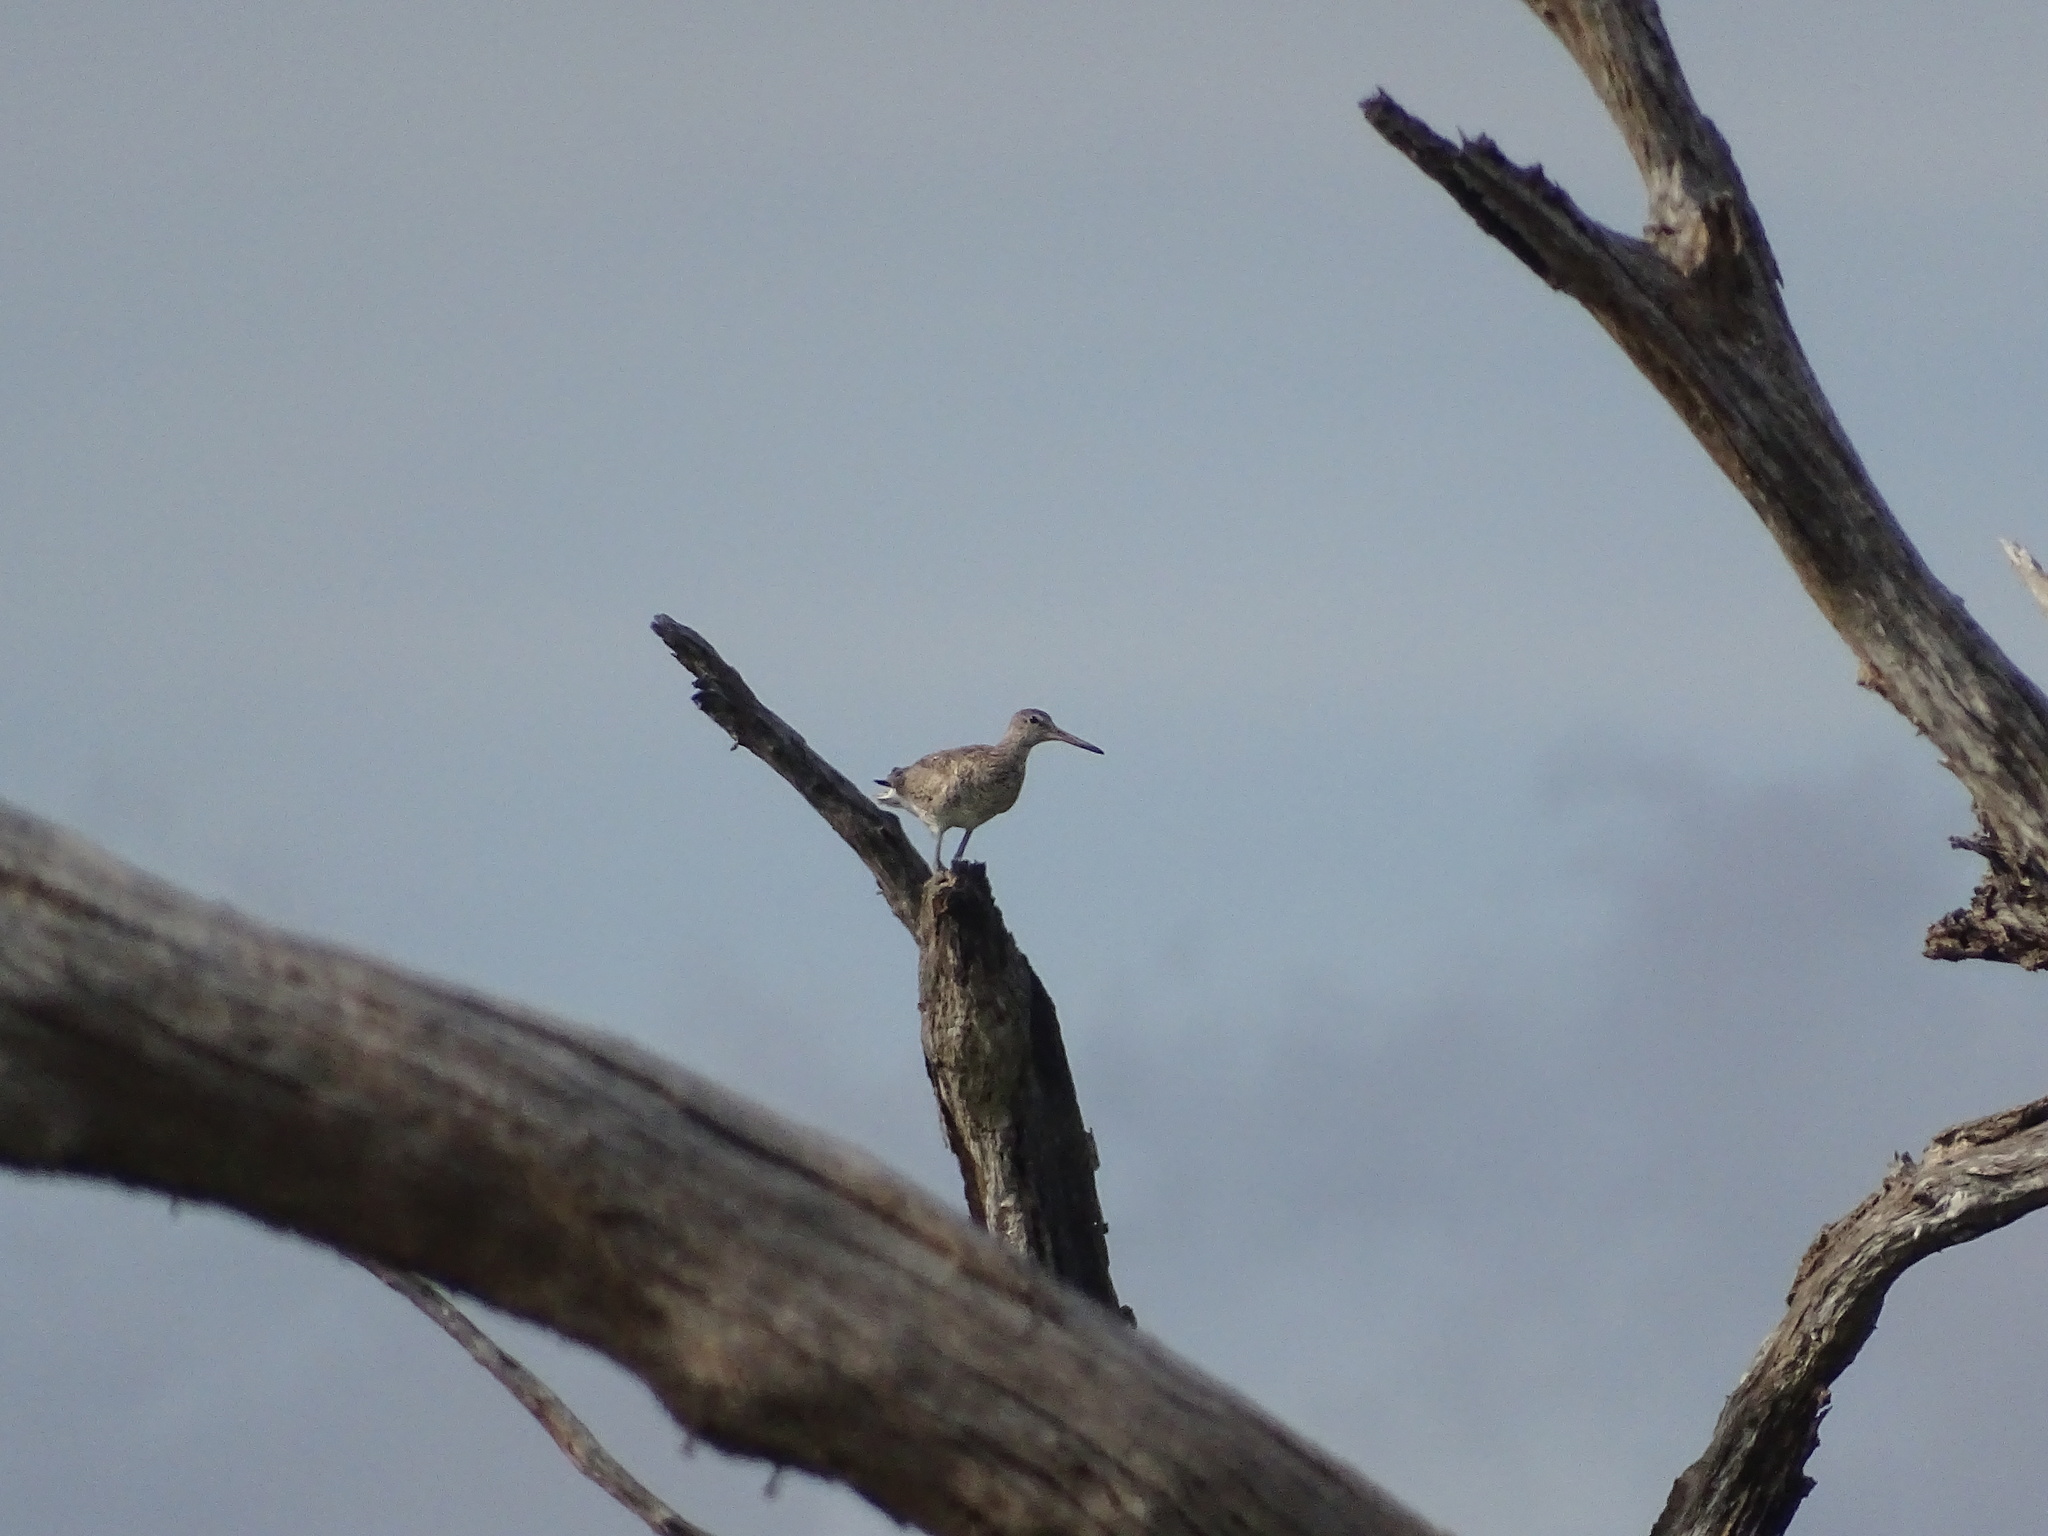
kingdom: Animalia
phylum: Chordata
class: Aves
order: Charadriiformes
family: Scolopacidae
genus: Tringa
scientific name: Tringa semipalmata
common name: Willet
